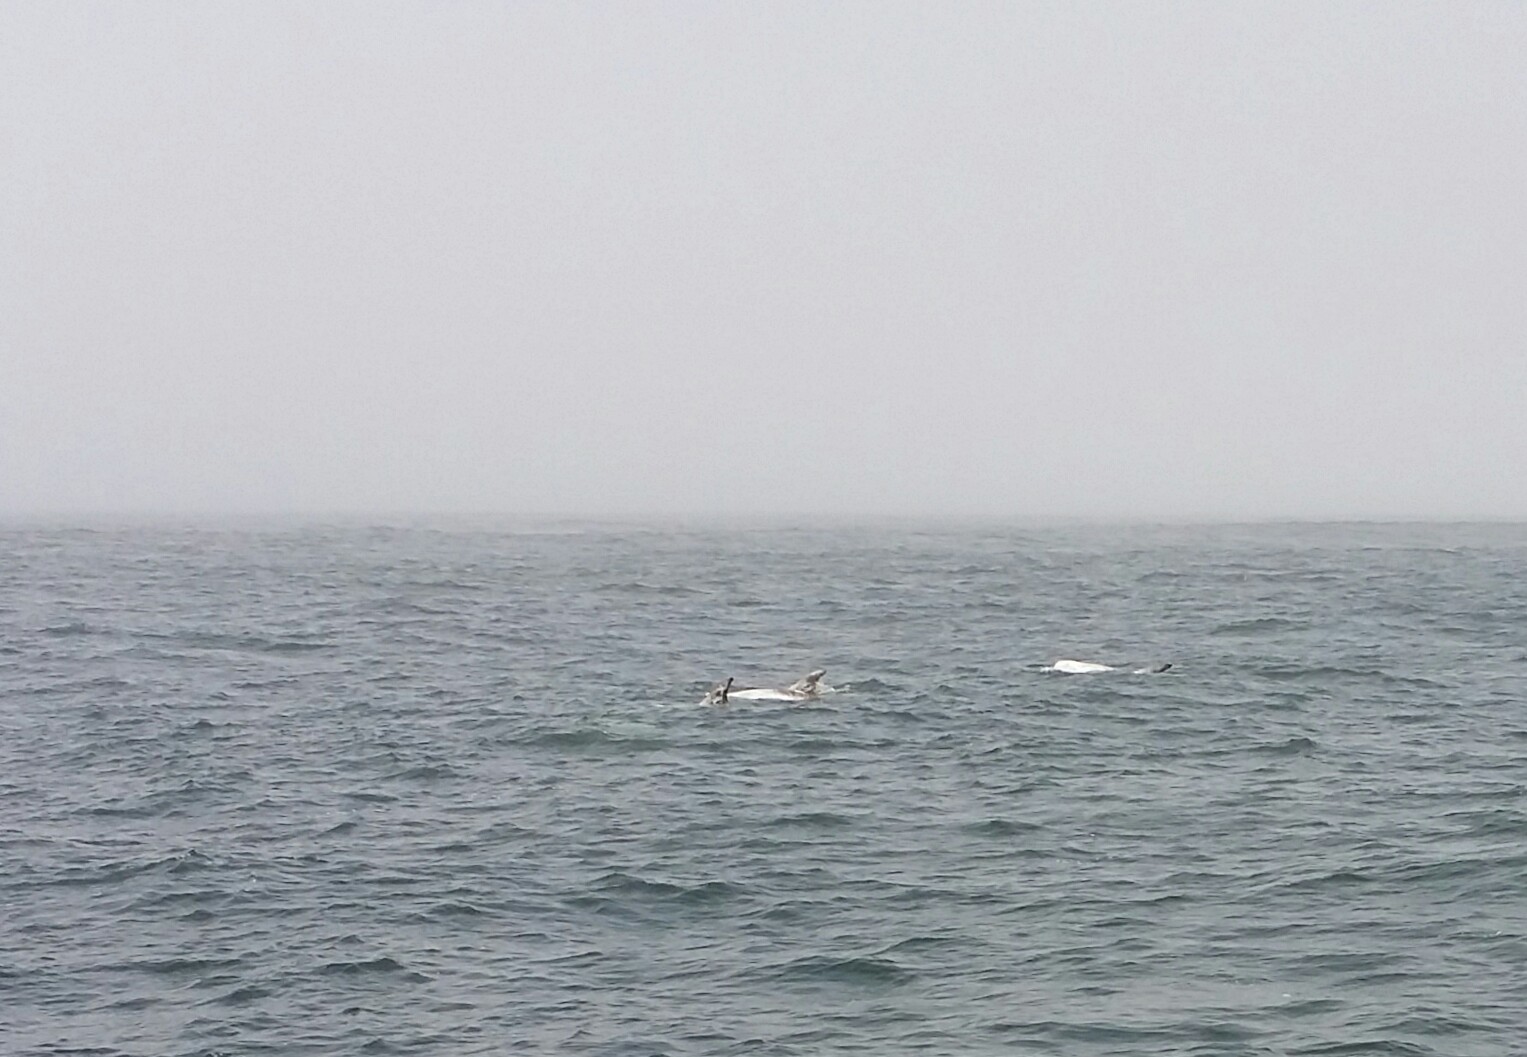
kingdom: Animalia
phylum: Chordata
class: Mammalia
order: Cetacea
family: Delphinidae
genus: Grampus
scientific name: Grampus griseus
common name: Risso's dolphin
